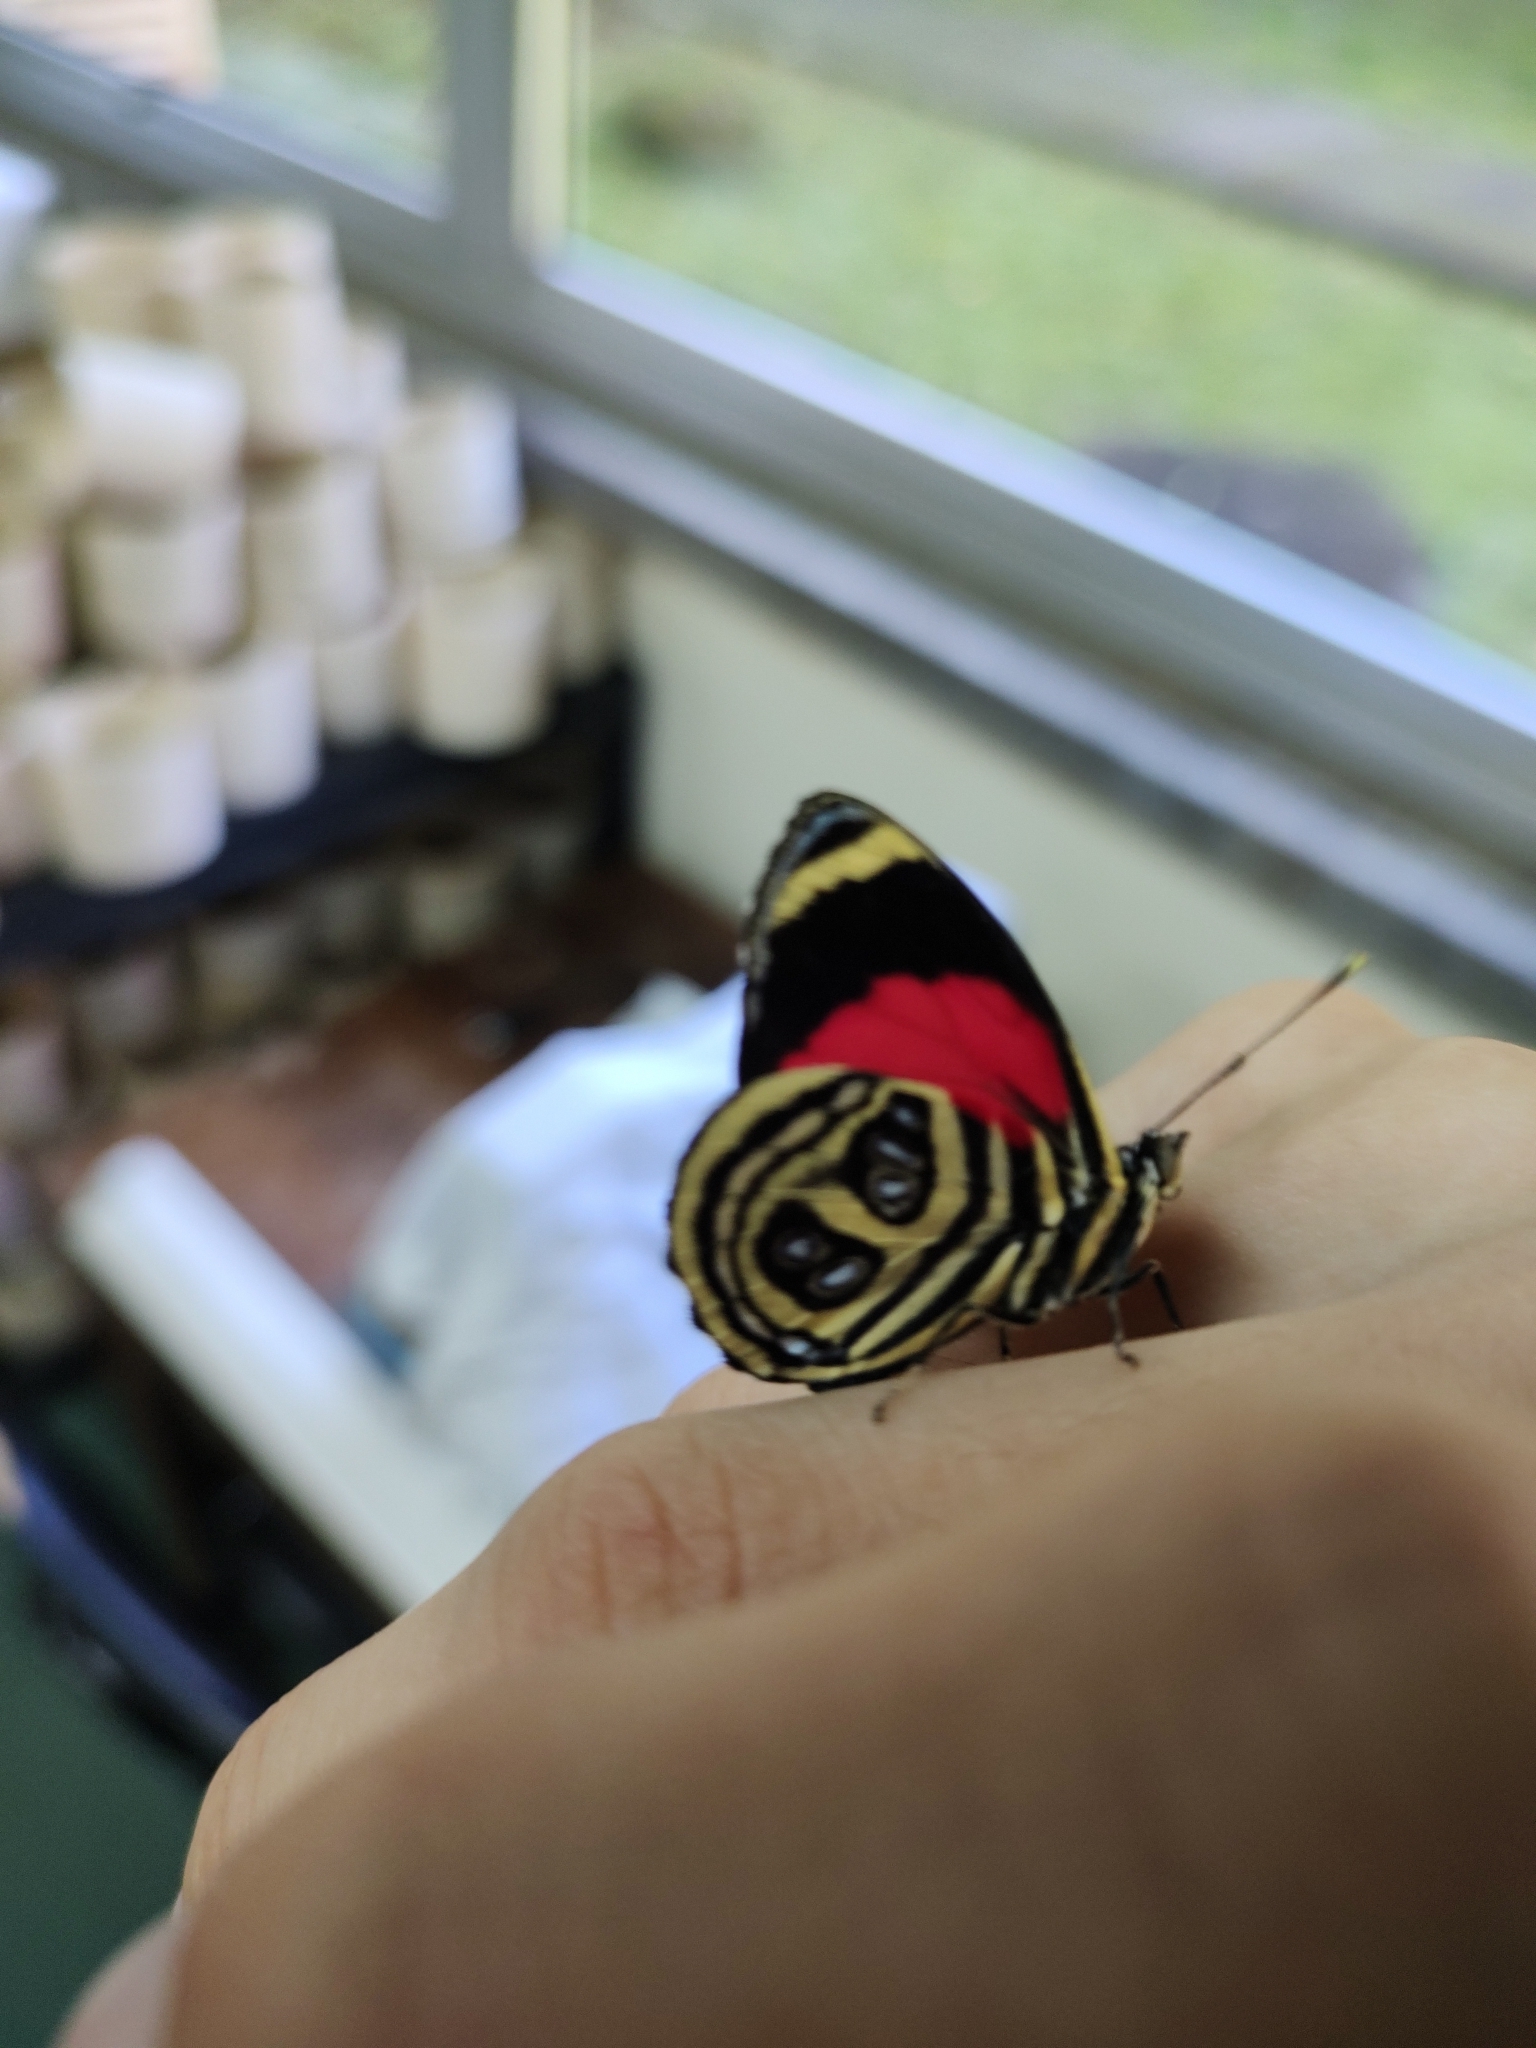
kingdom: Animalia
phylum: Arthropoda
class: Insecta
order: Lepidoptera
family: Nymphalidae
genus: Catagramma
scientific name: Catagramma pygas
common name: Godart's numberwing
